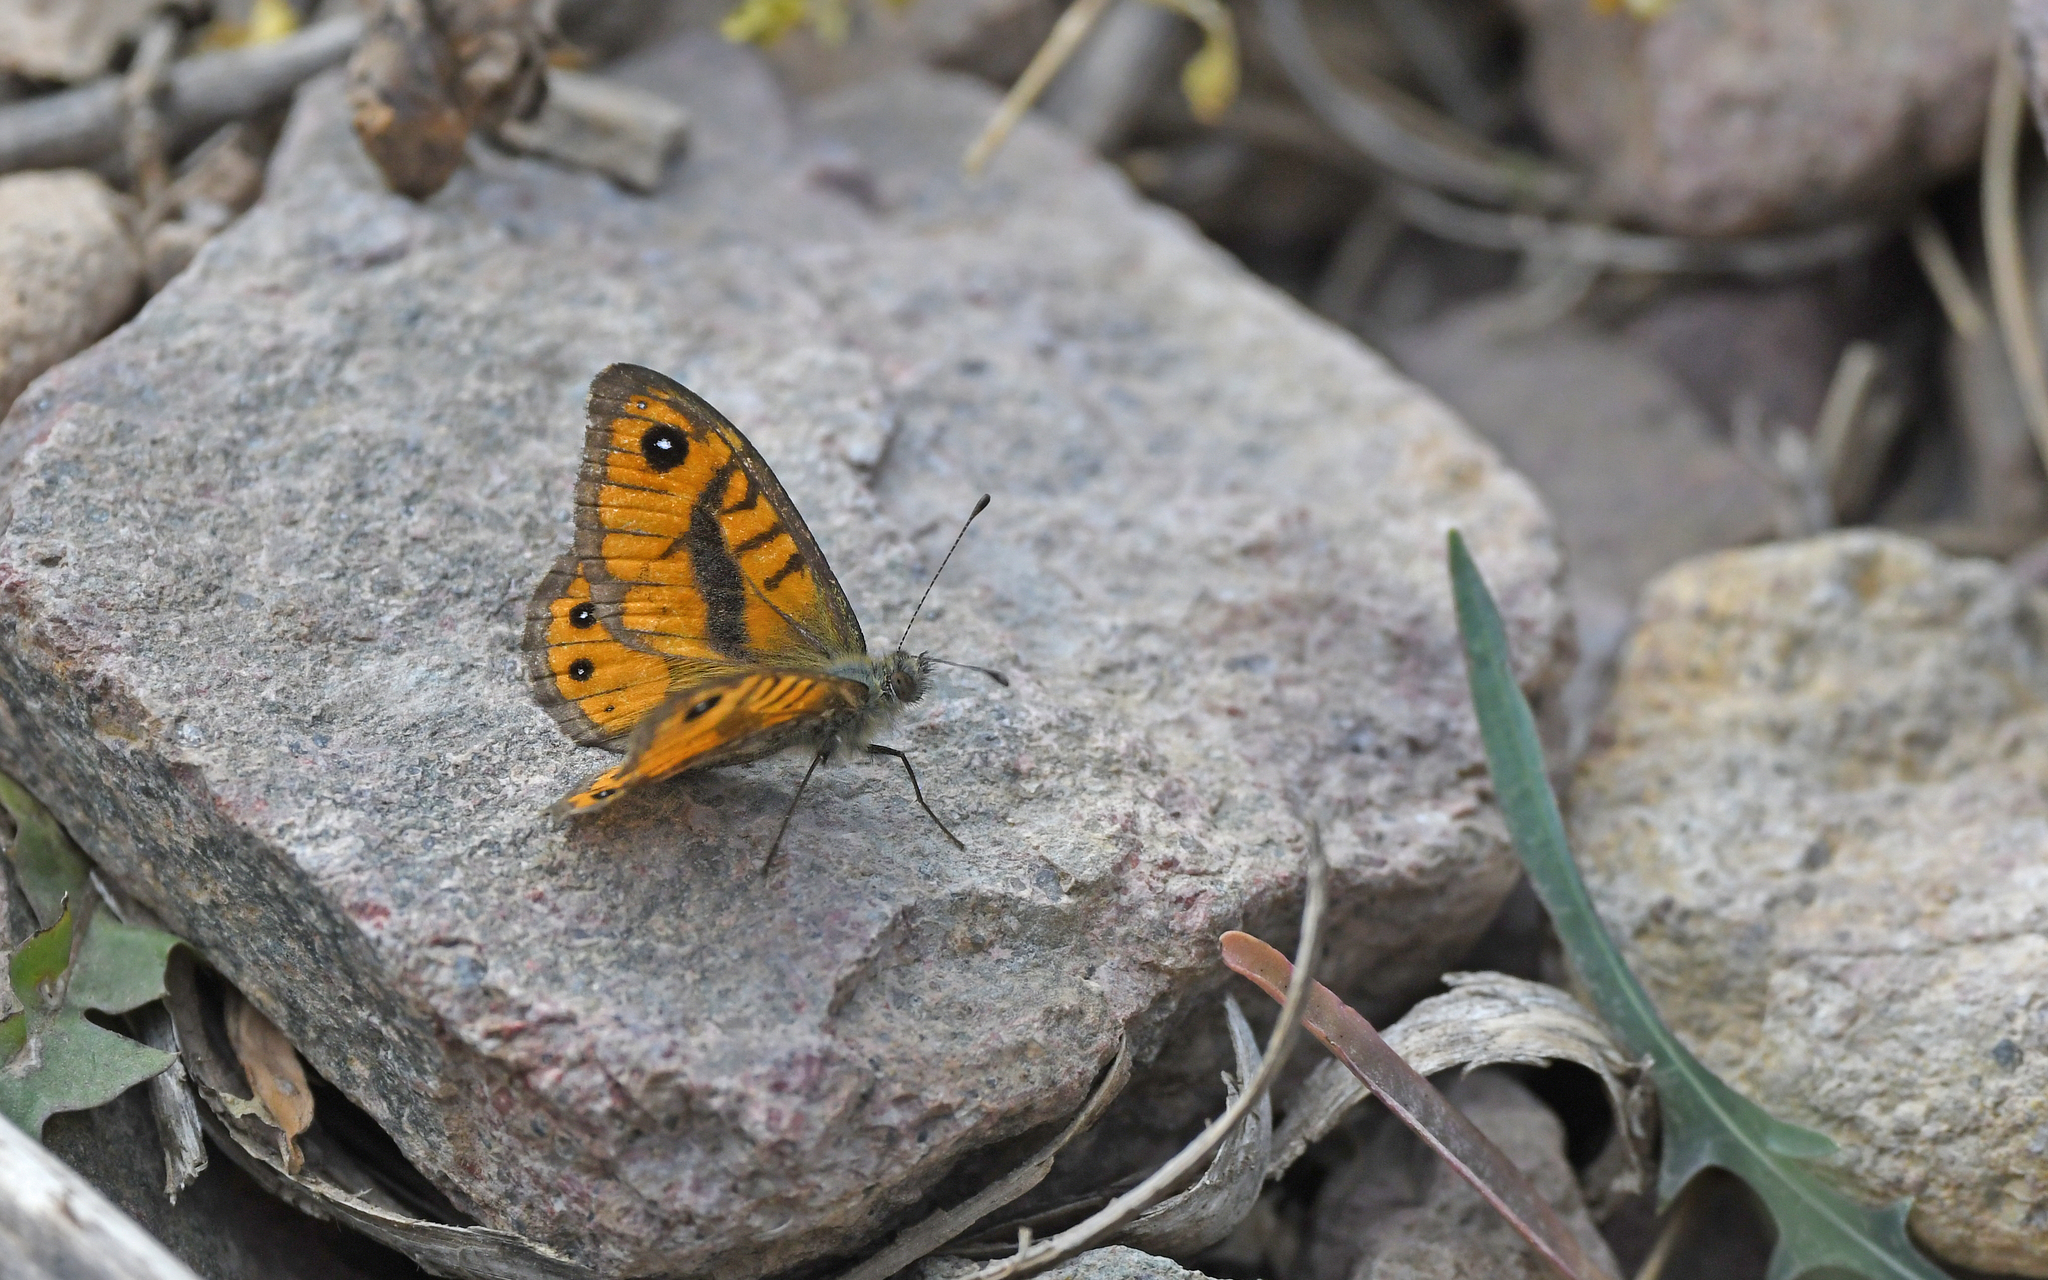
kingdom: Animalia
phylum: Arthropoda
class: Insecta
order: Lepidoptera
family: Nymphalidae
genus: Pararge
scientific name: Pararge Lasiommata paramegaera
